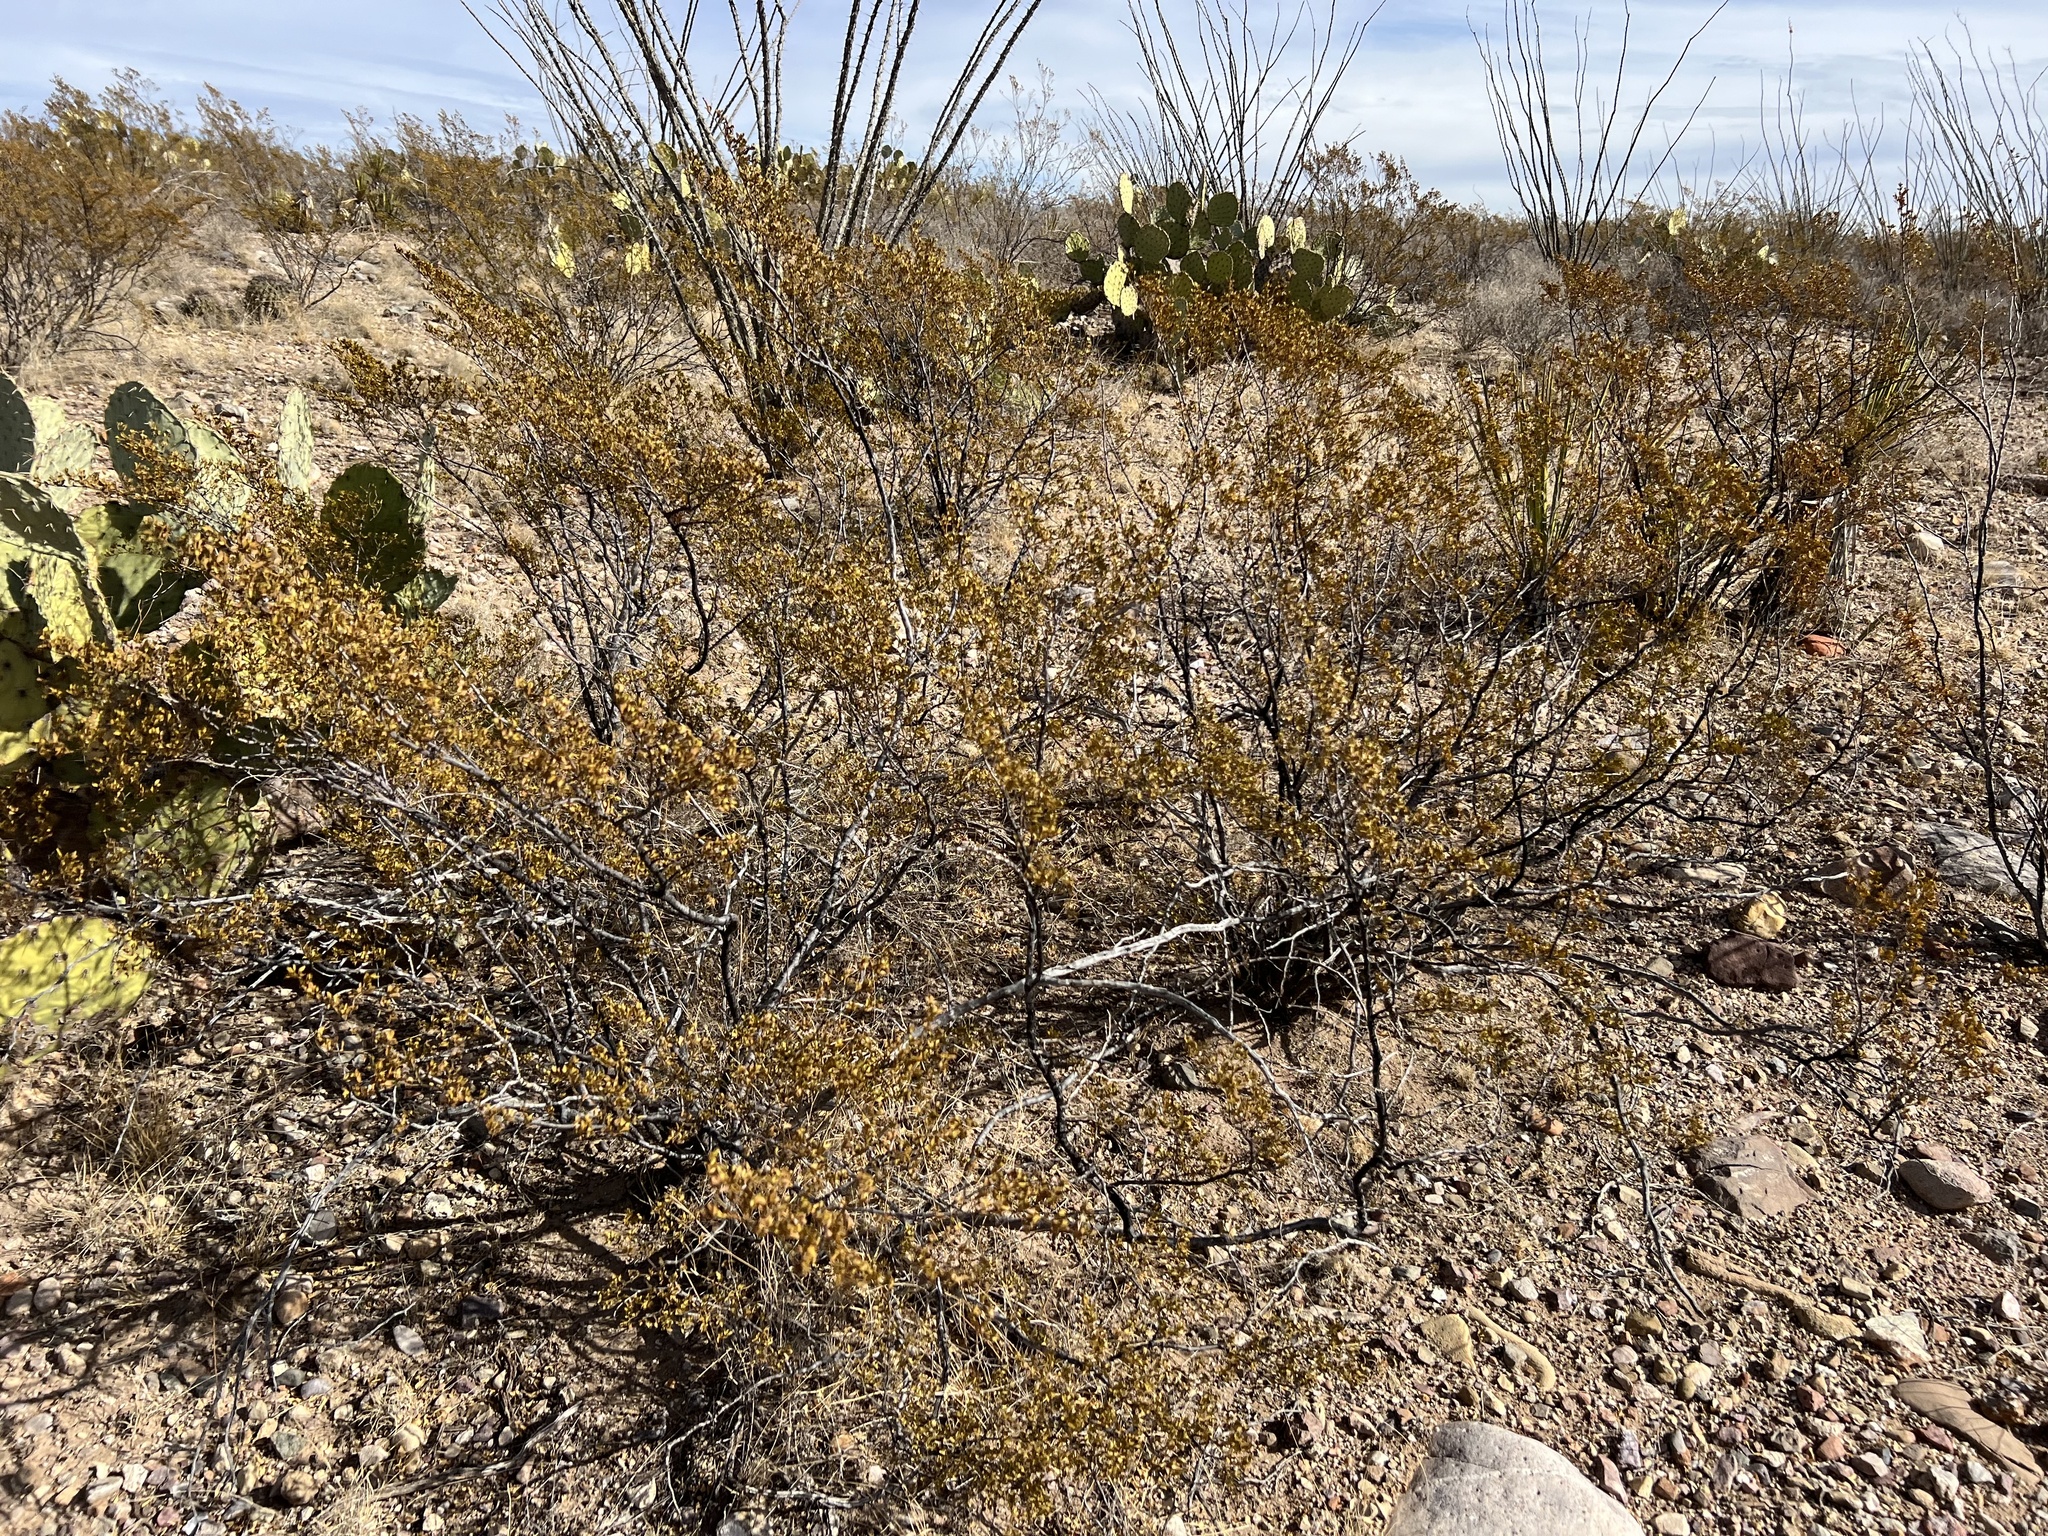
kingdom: Plantae
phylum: Tracheophyta
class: Magnoliopsida
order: Zygophyllales
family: Zygophyllaceae
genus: Larrea
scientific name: Larrea tridentata
